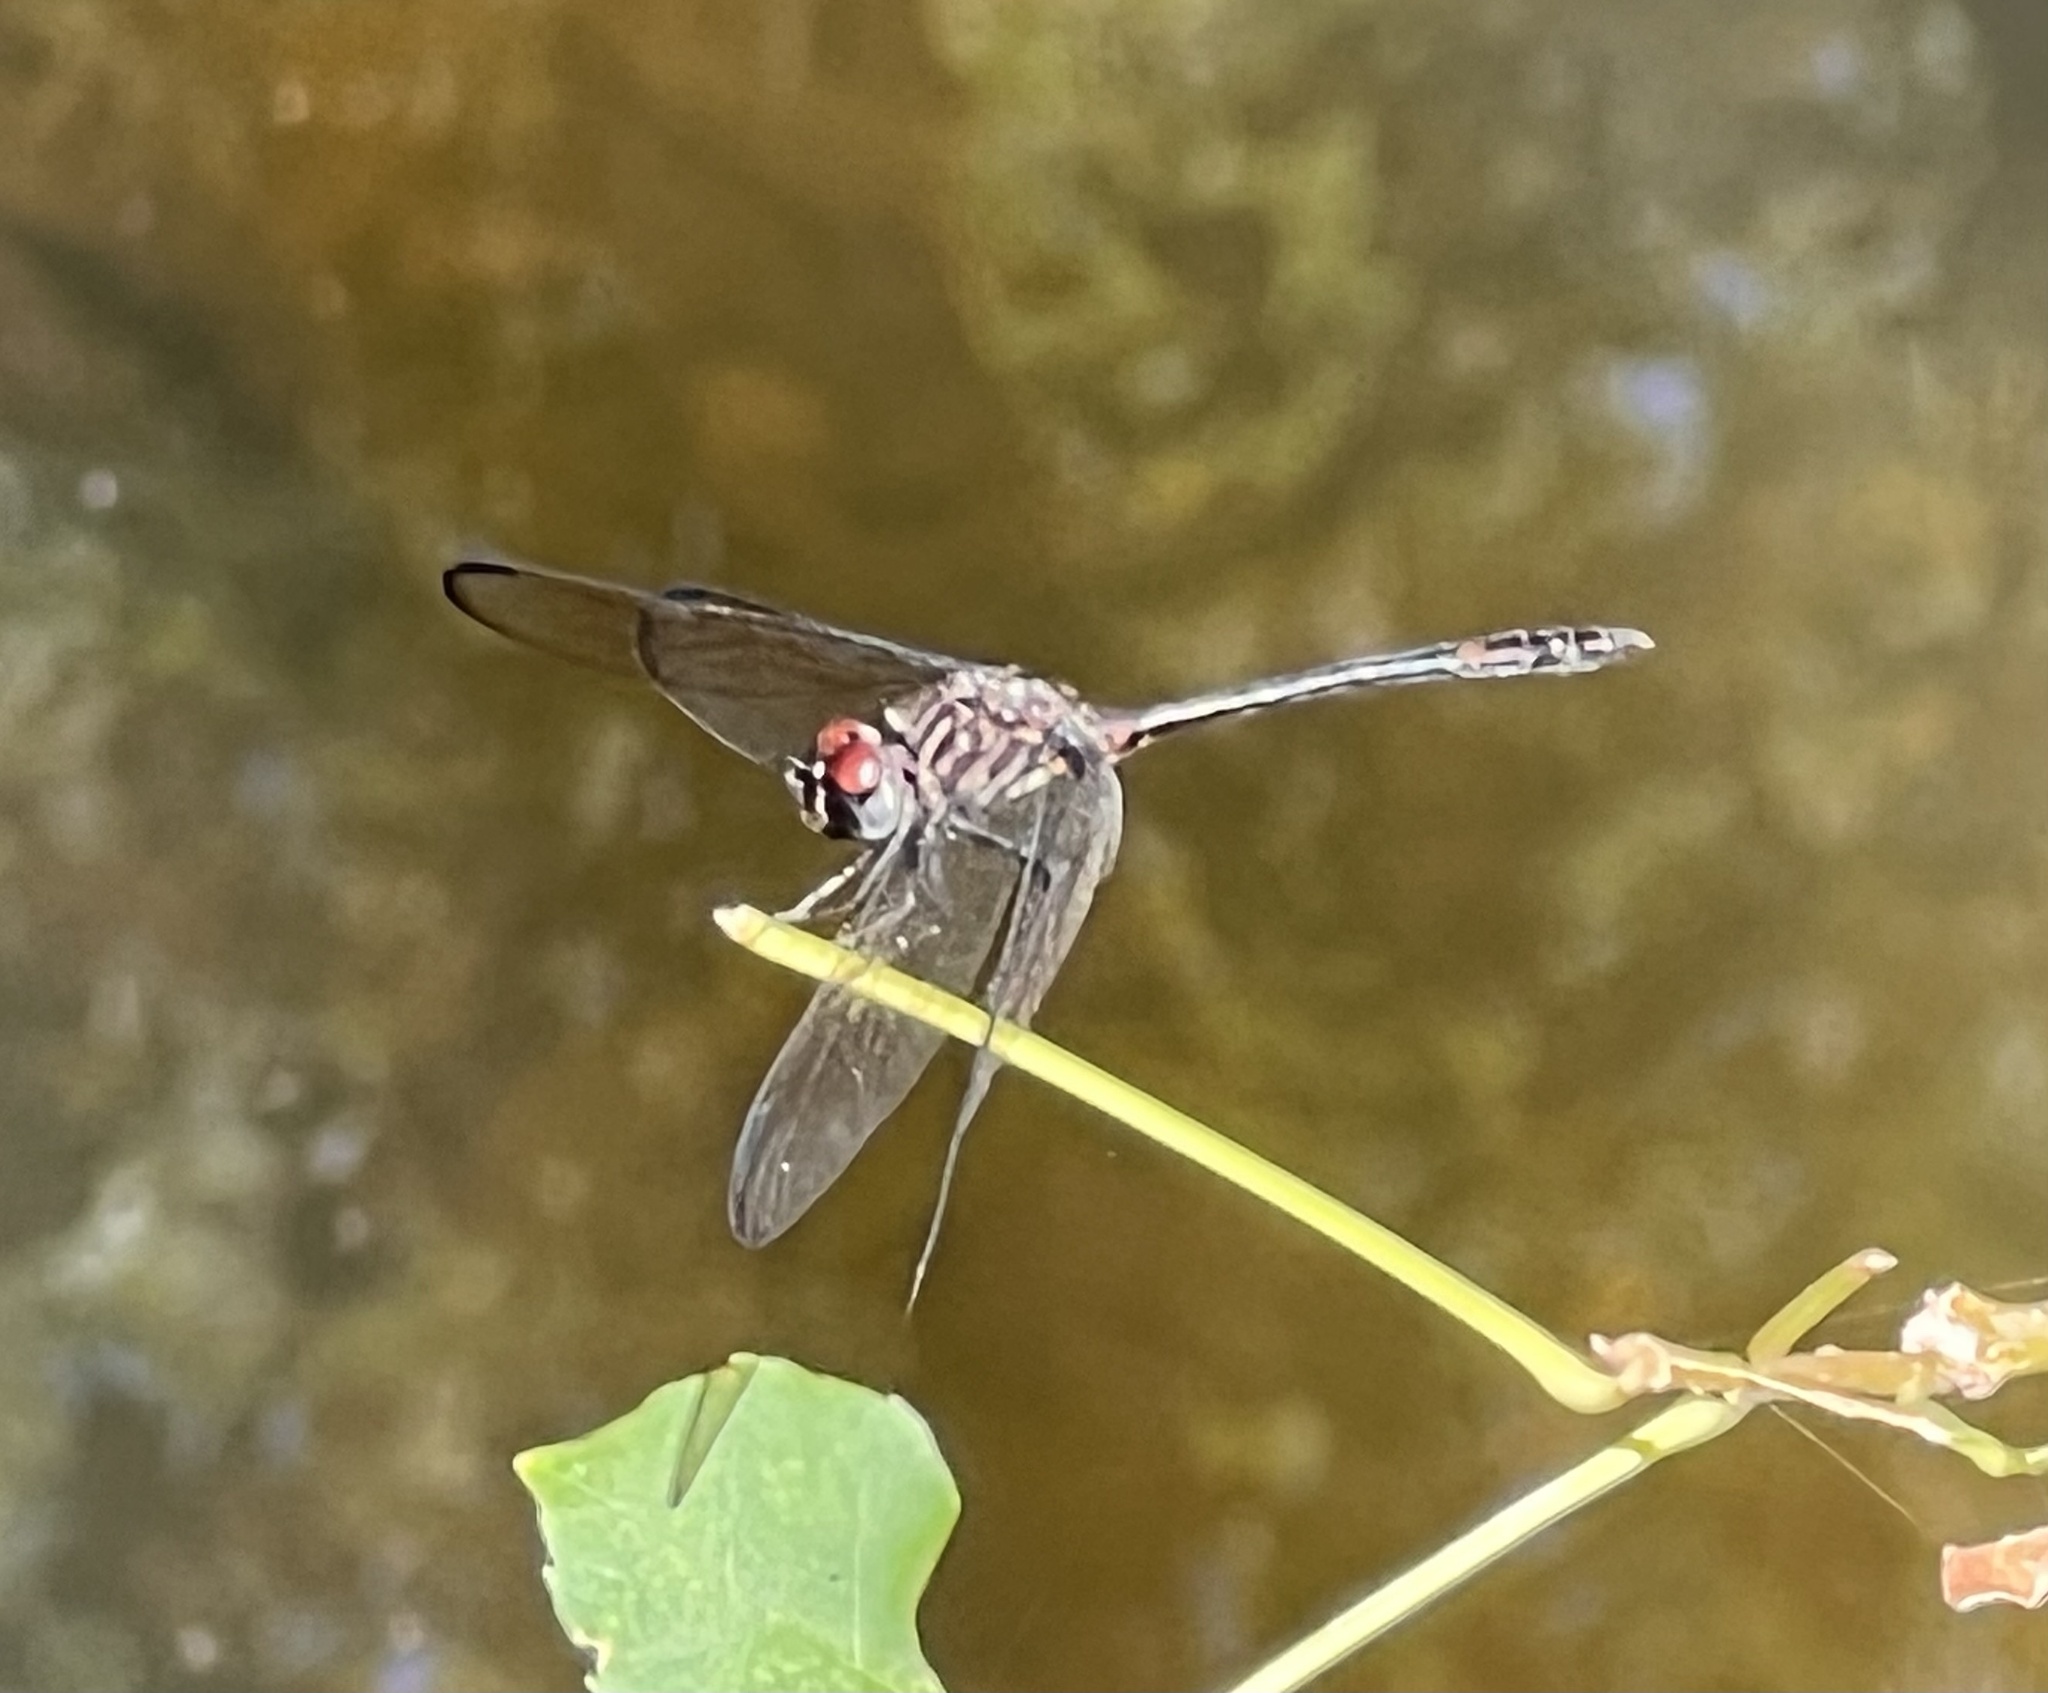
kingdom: Animalia
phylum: Arthropoda
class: Insecta
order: Odonata
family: Libellulidae
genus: Dythemis
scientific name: Dythemis velox
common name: Swift setwing
